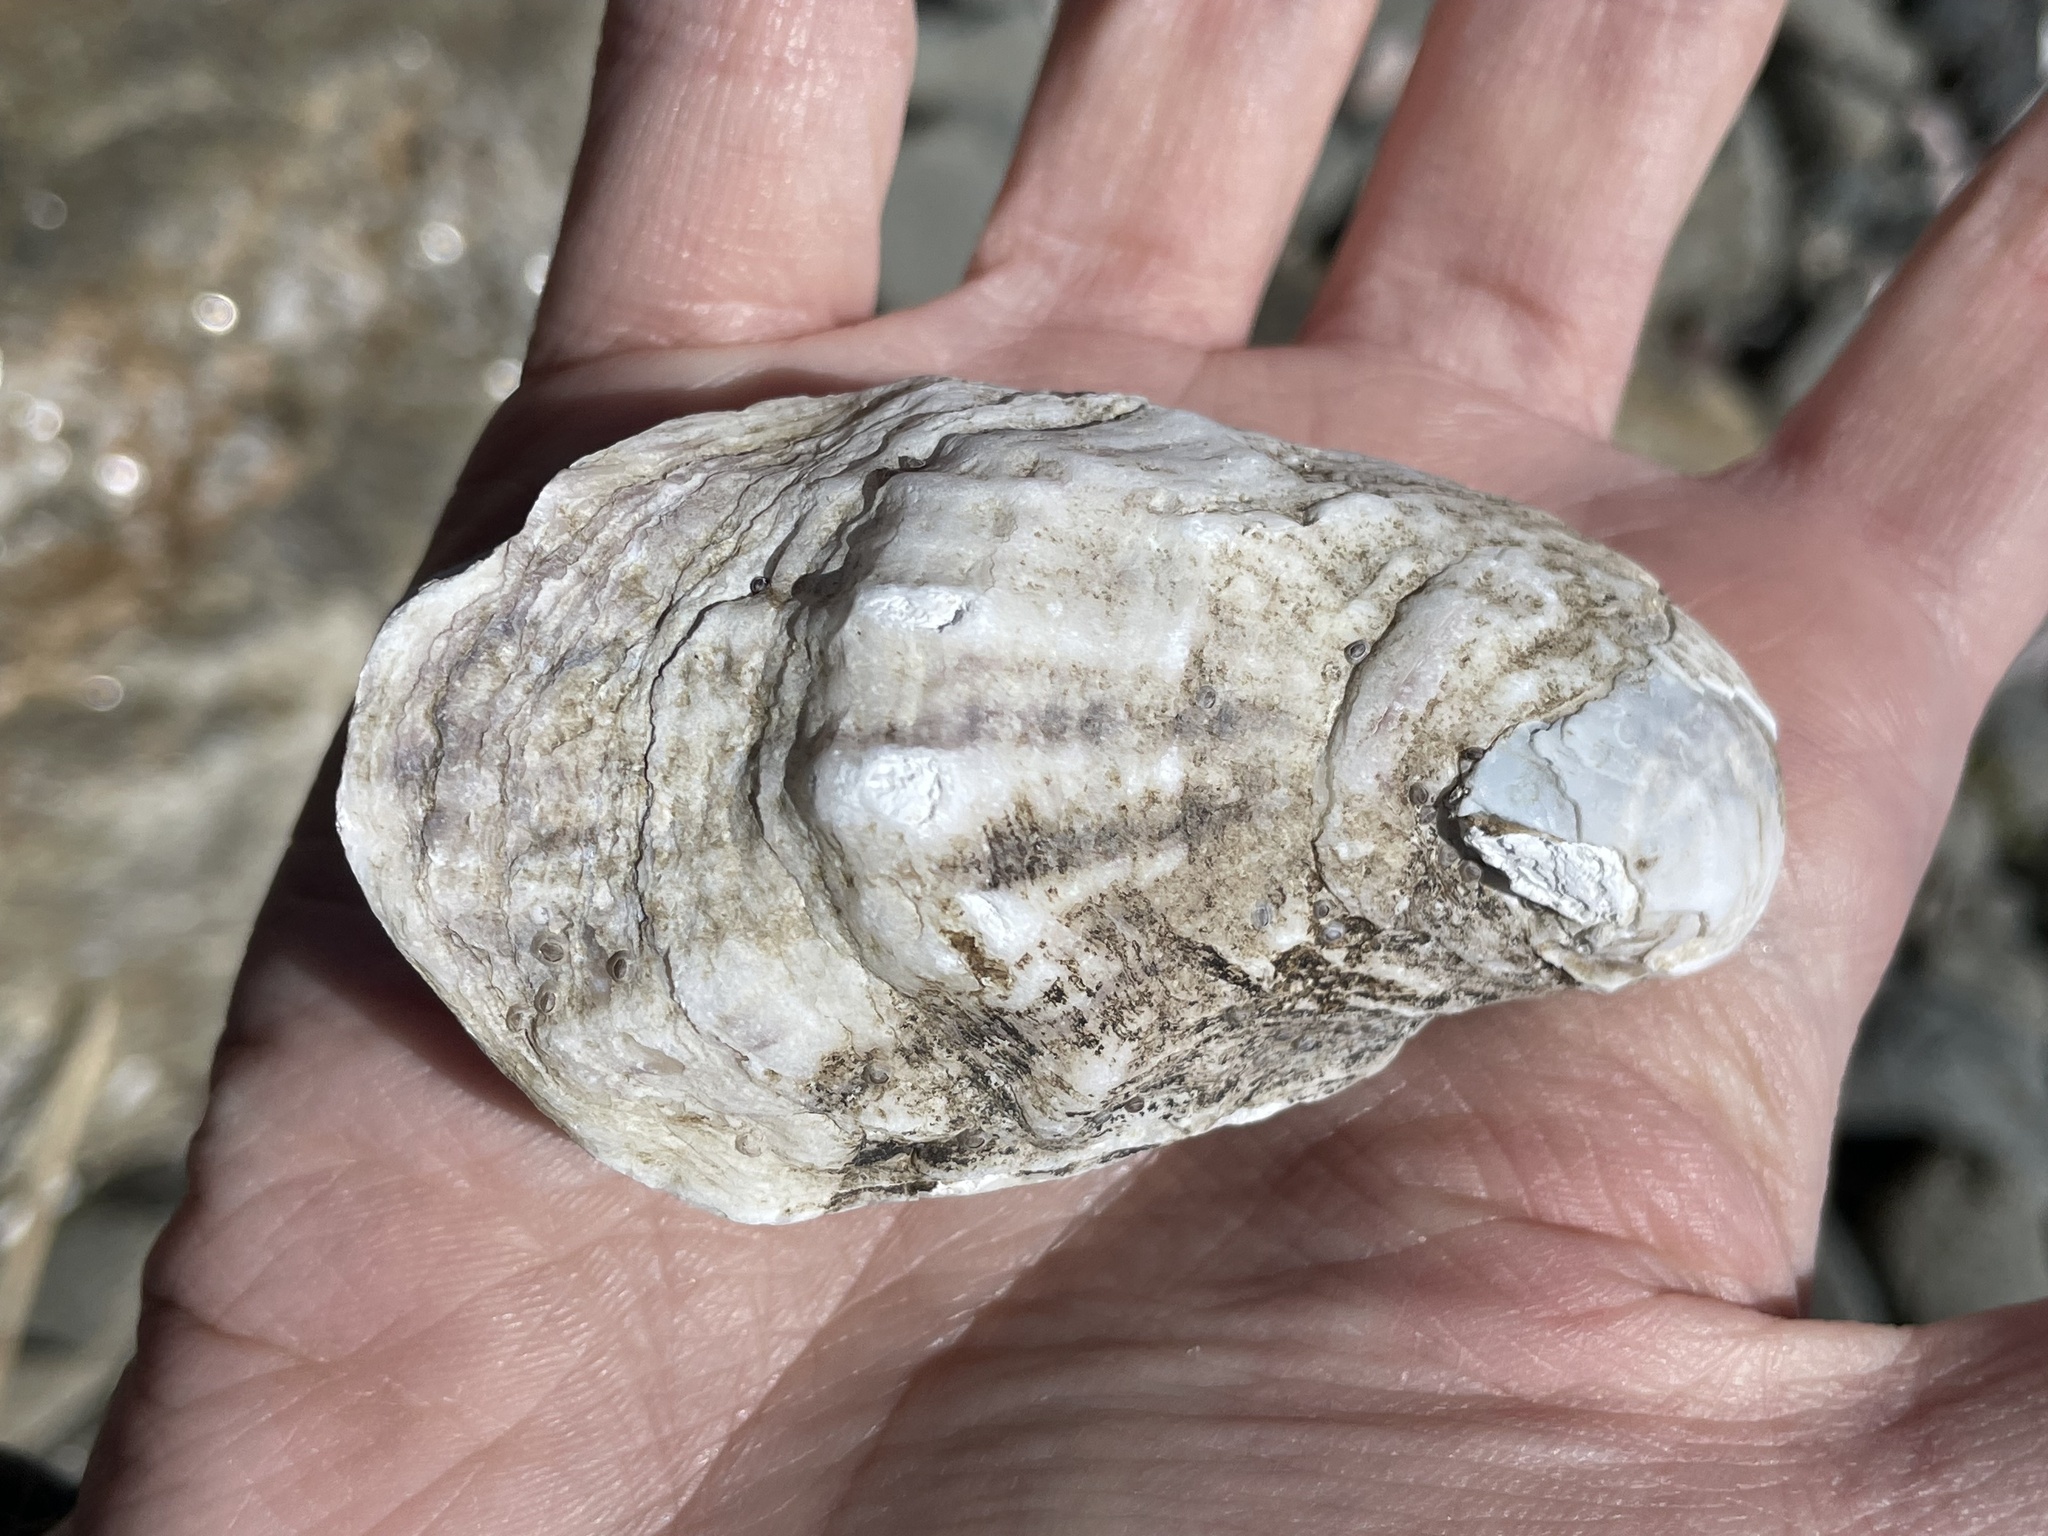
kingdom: Animalia
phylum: Mollusca
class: Bivalvia
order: Ostreida
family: Ostreidae
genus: Crassostrea
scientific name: Crassostrea virginica
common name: American oyster
